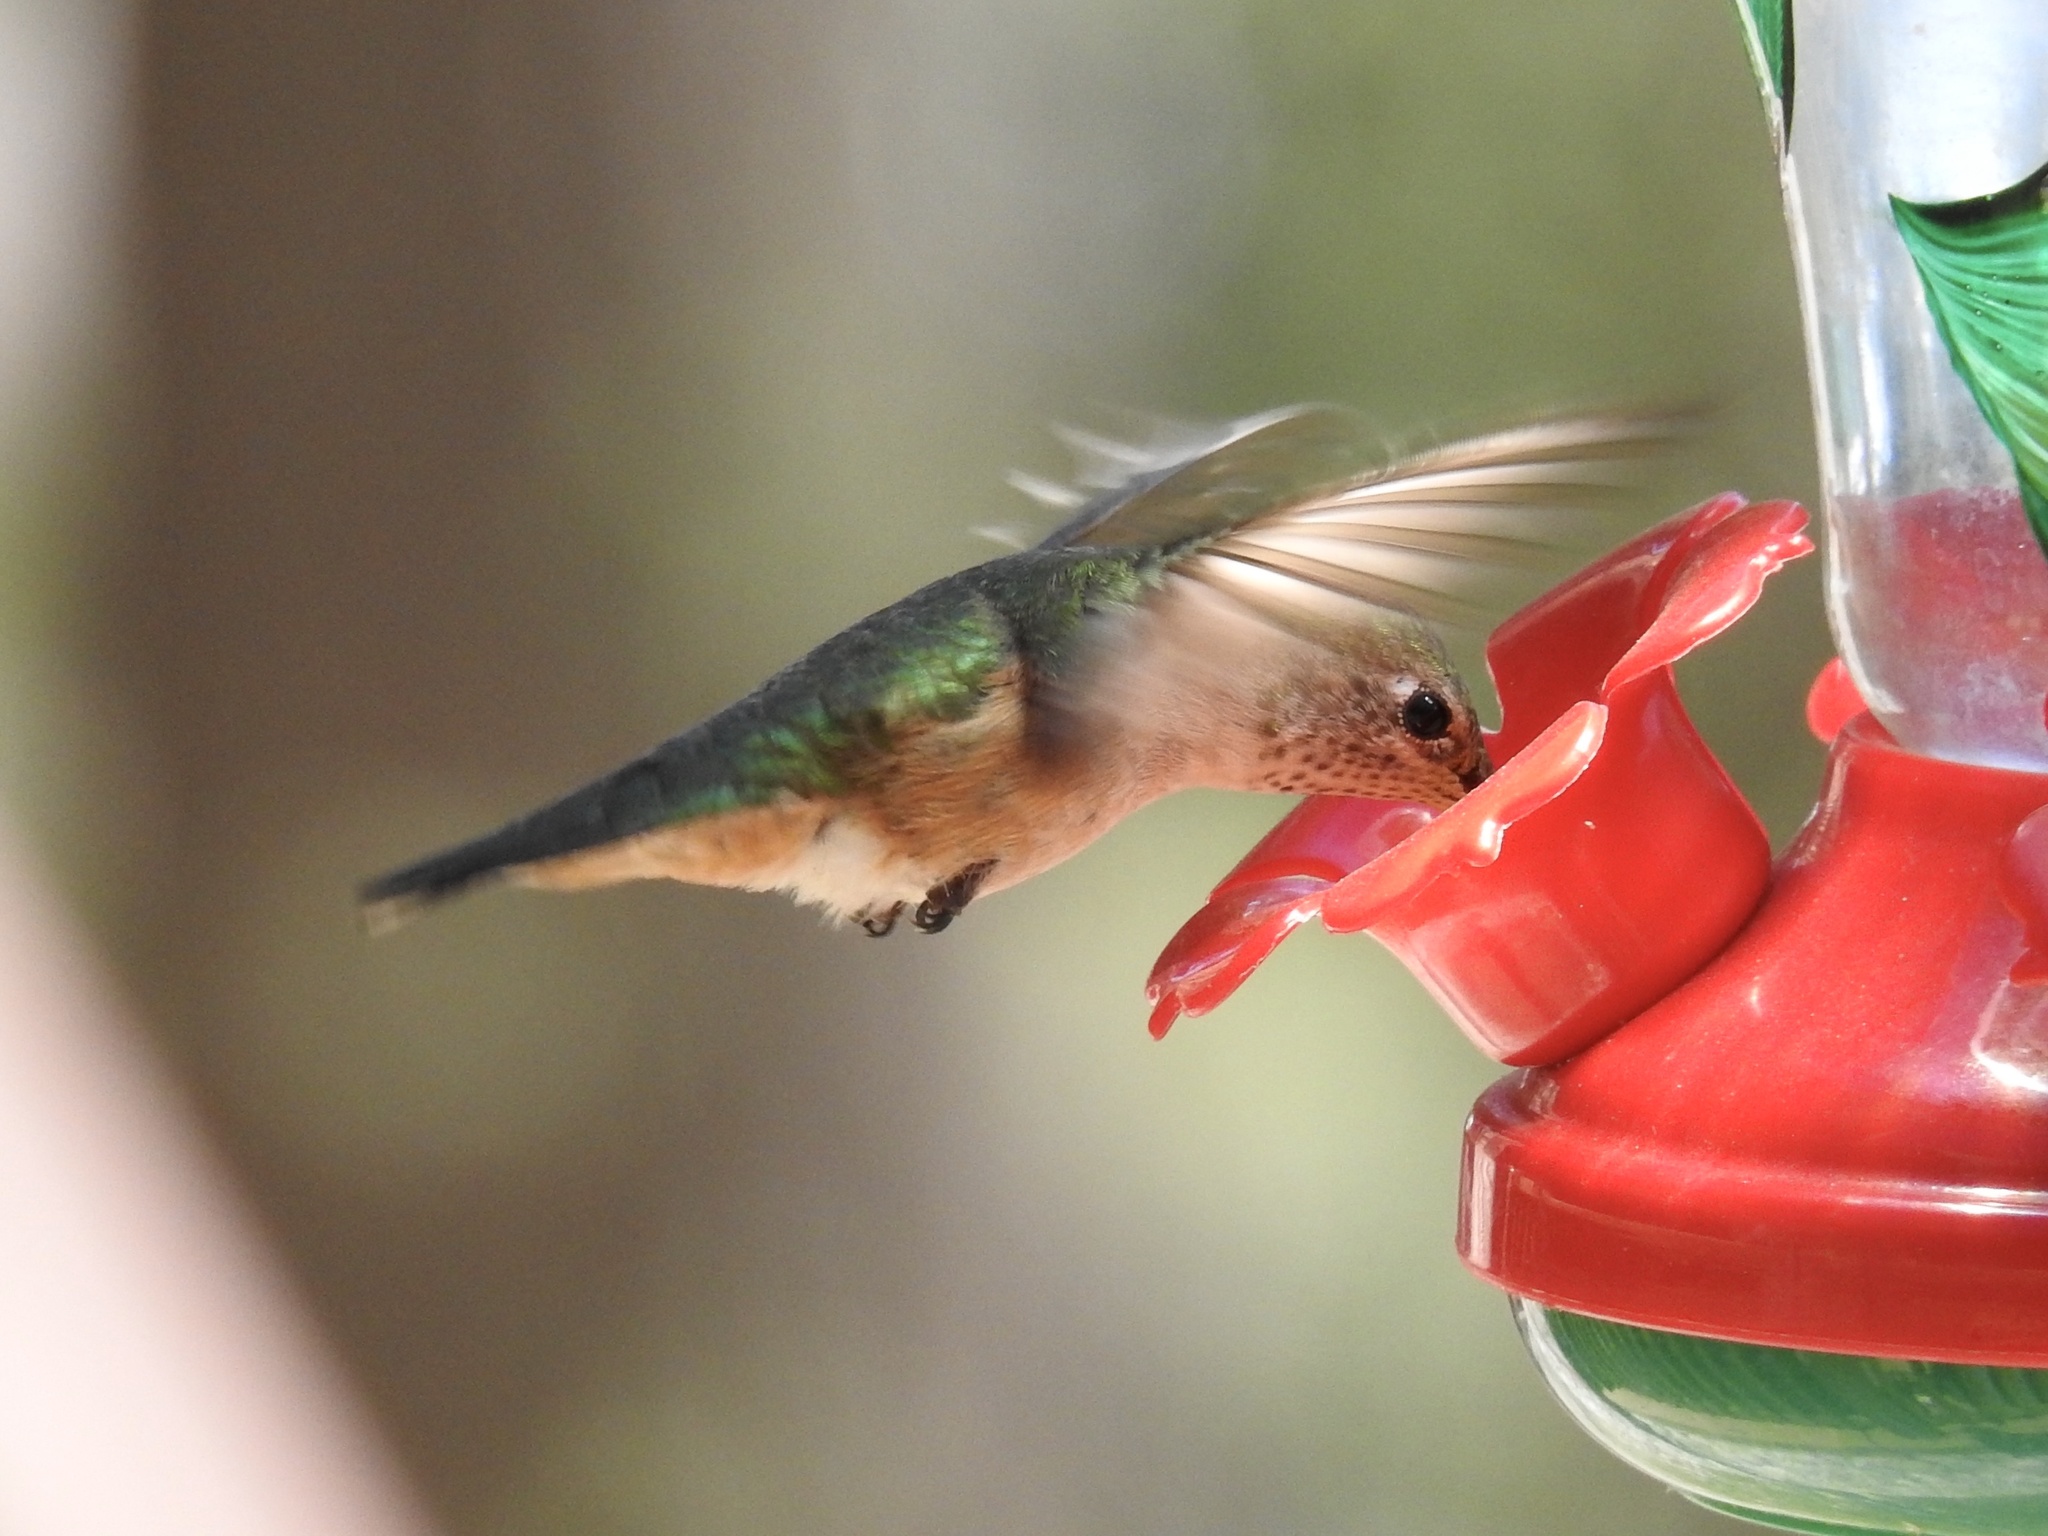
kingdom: Animalia
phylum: Chordata
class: Aves
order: Apodiformes
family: Trochilidae
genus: Selasphorus
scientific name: Selasphorus platycercus
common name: Broad-tailed hummingbird
